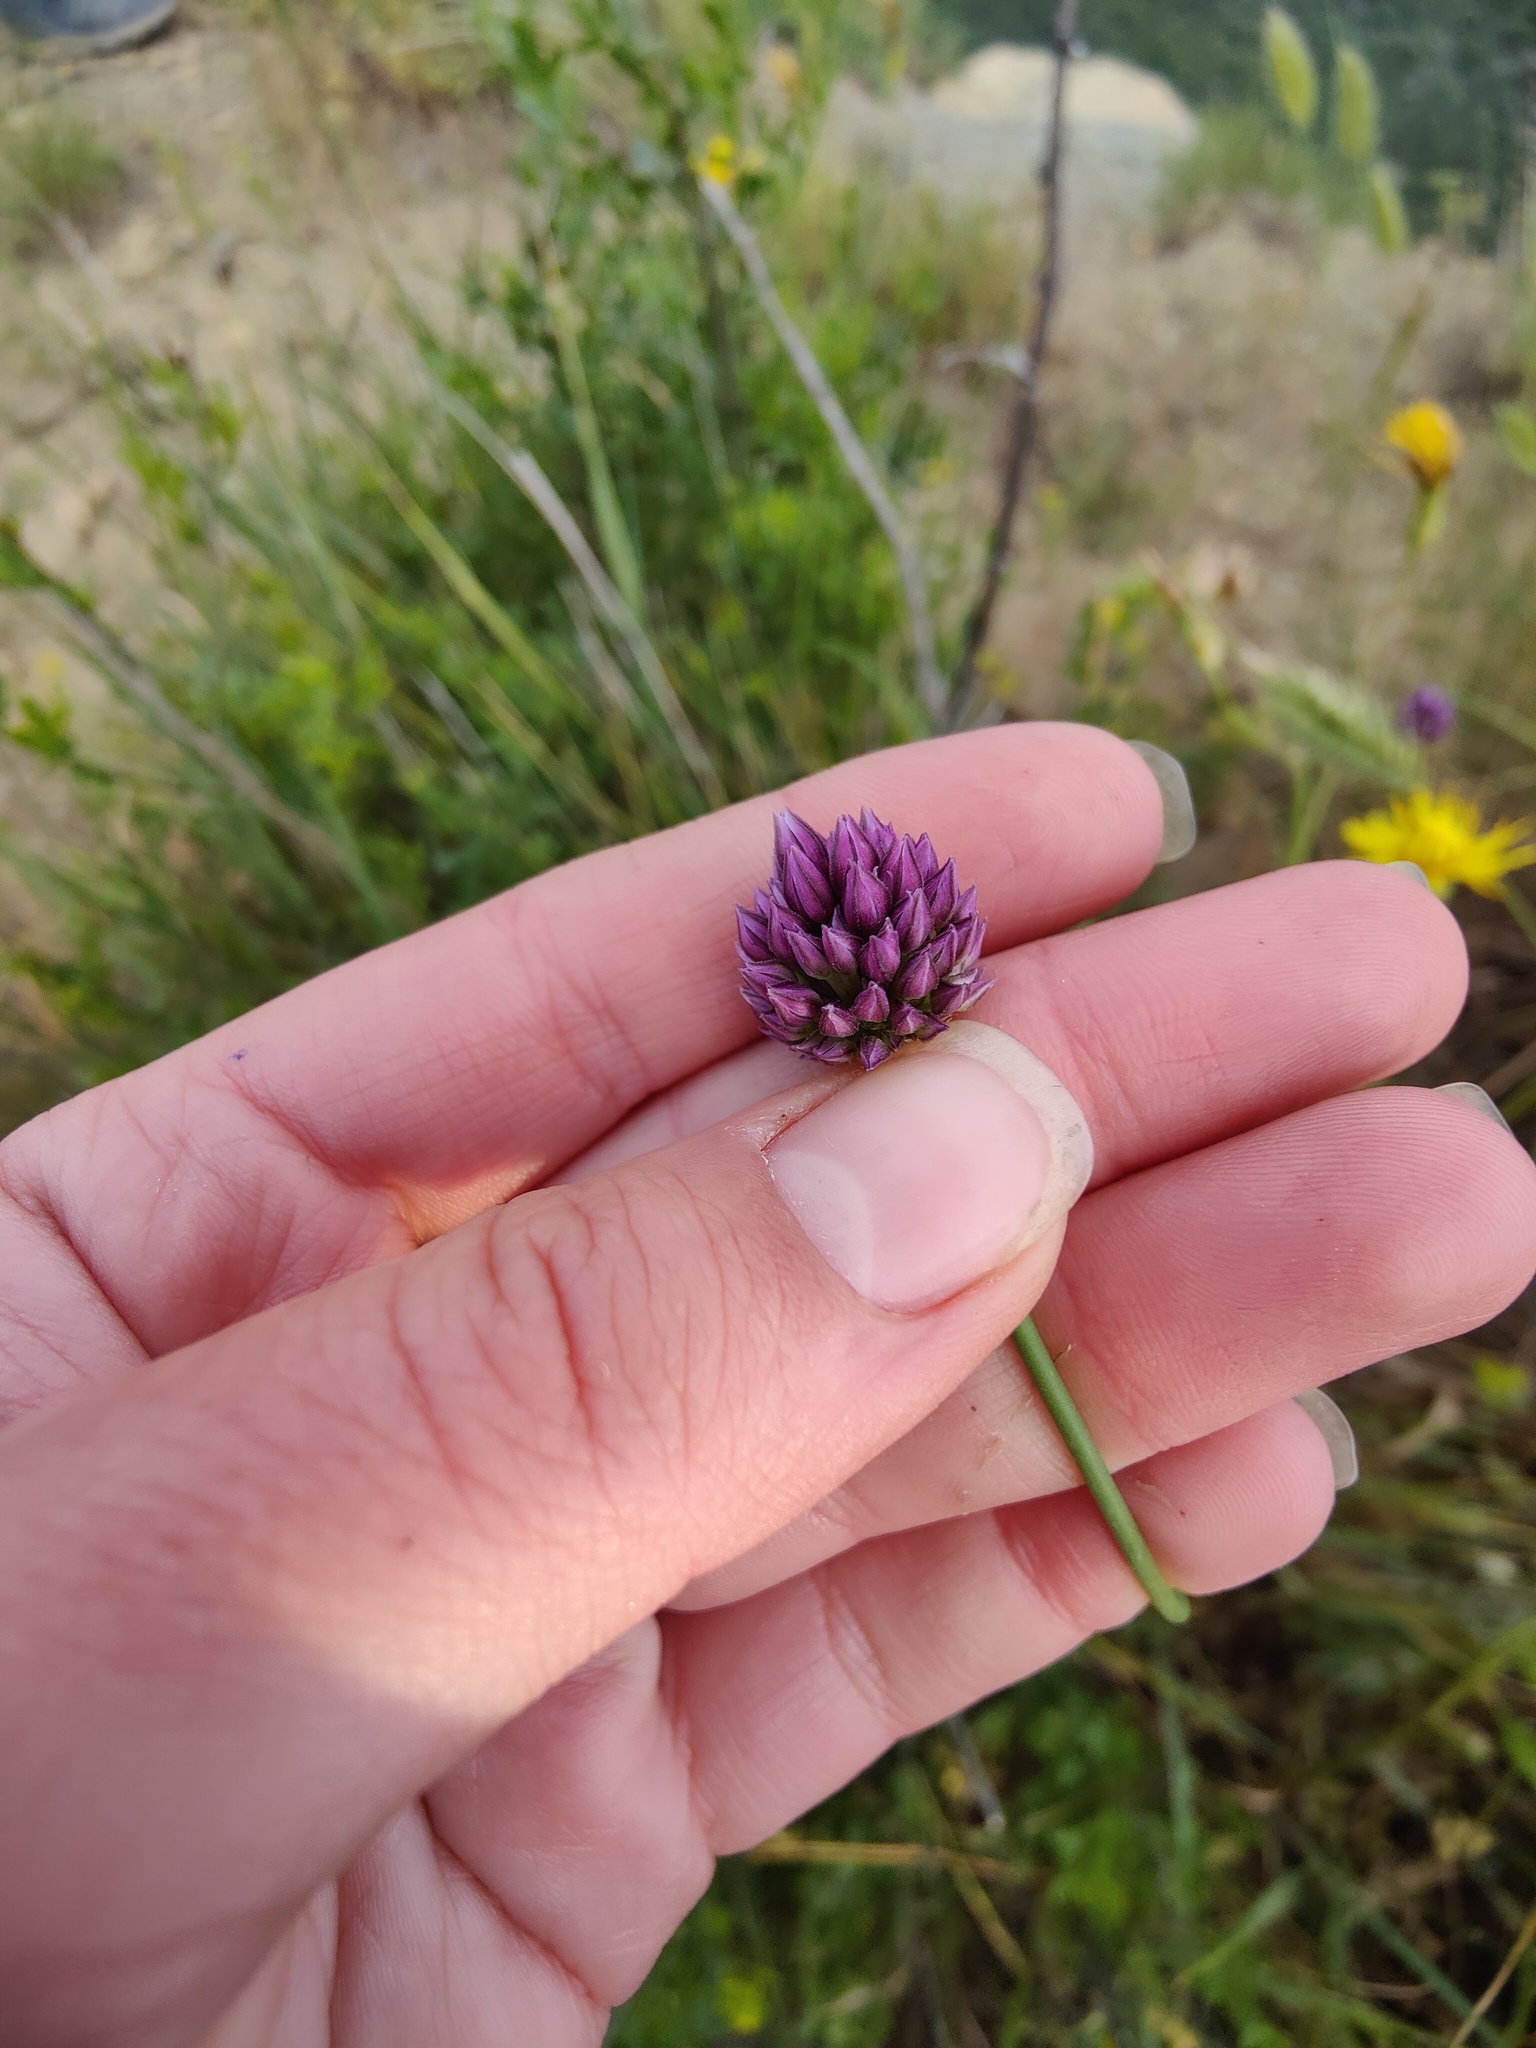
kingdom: Plantae
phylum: Tracheophyta
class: Liliopsida
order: Asparagales
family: Amaryllidaceae
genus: Allium
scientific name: Allium rotundum
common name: Sand leek
